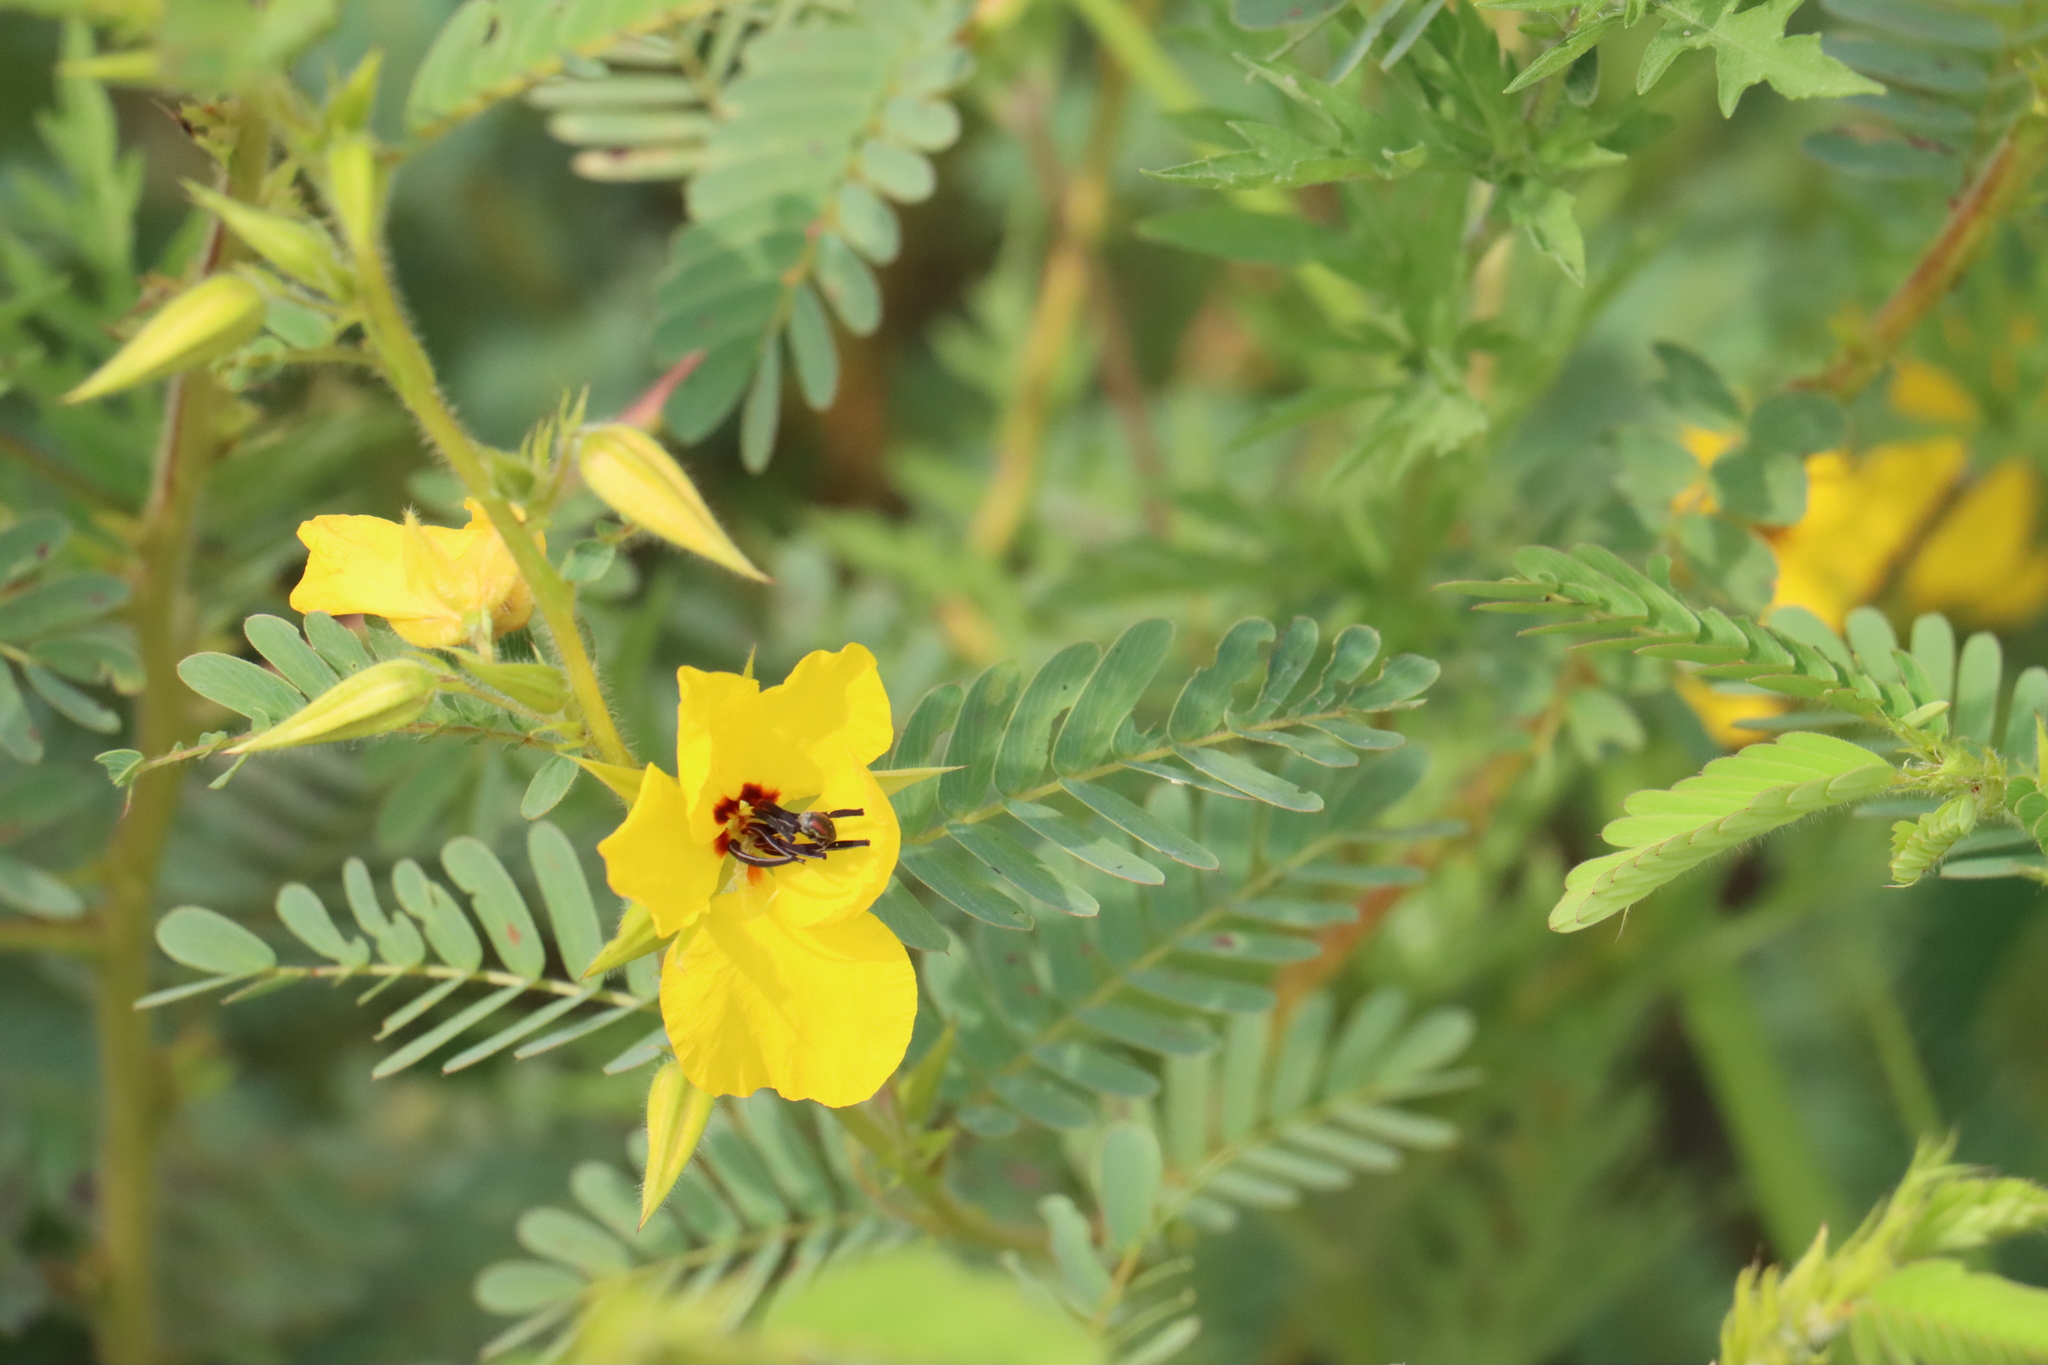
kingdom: Plantae
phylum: Tracheophyta
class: Magnoliopsida
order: Fabales
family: Fabaceae
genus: Chamaecrista
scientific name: Chamaecrista fasciculata
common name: Golden cassia
